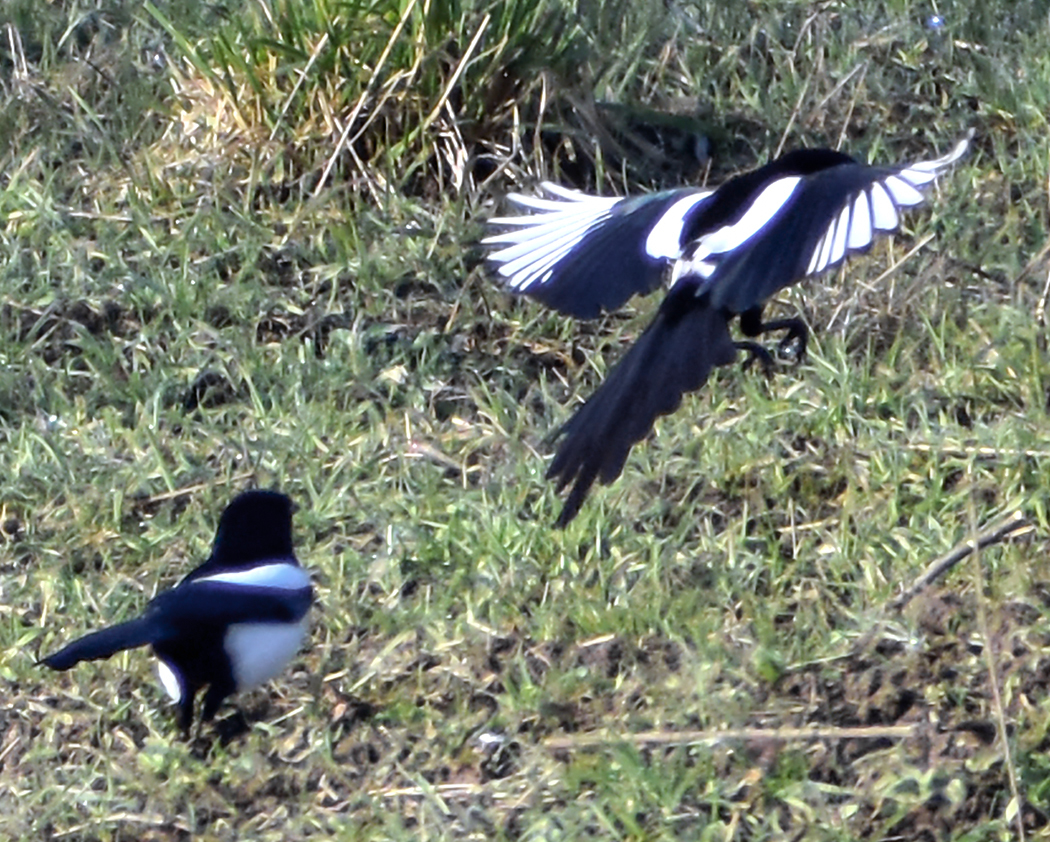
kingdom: Animalia
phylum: Chordata
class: Aves
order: Passeriformes
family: Corvidae
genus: Pica
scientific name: Pica pica
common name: Eurasian magpie
